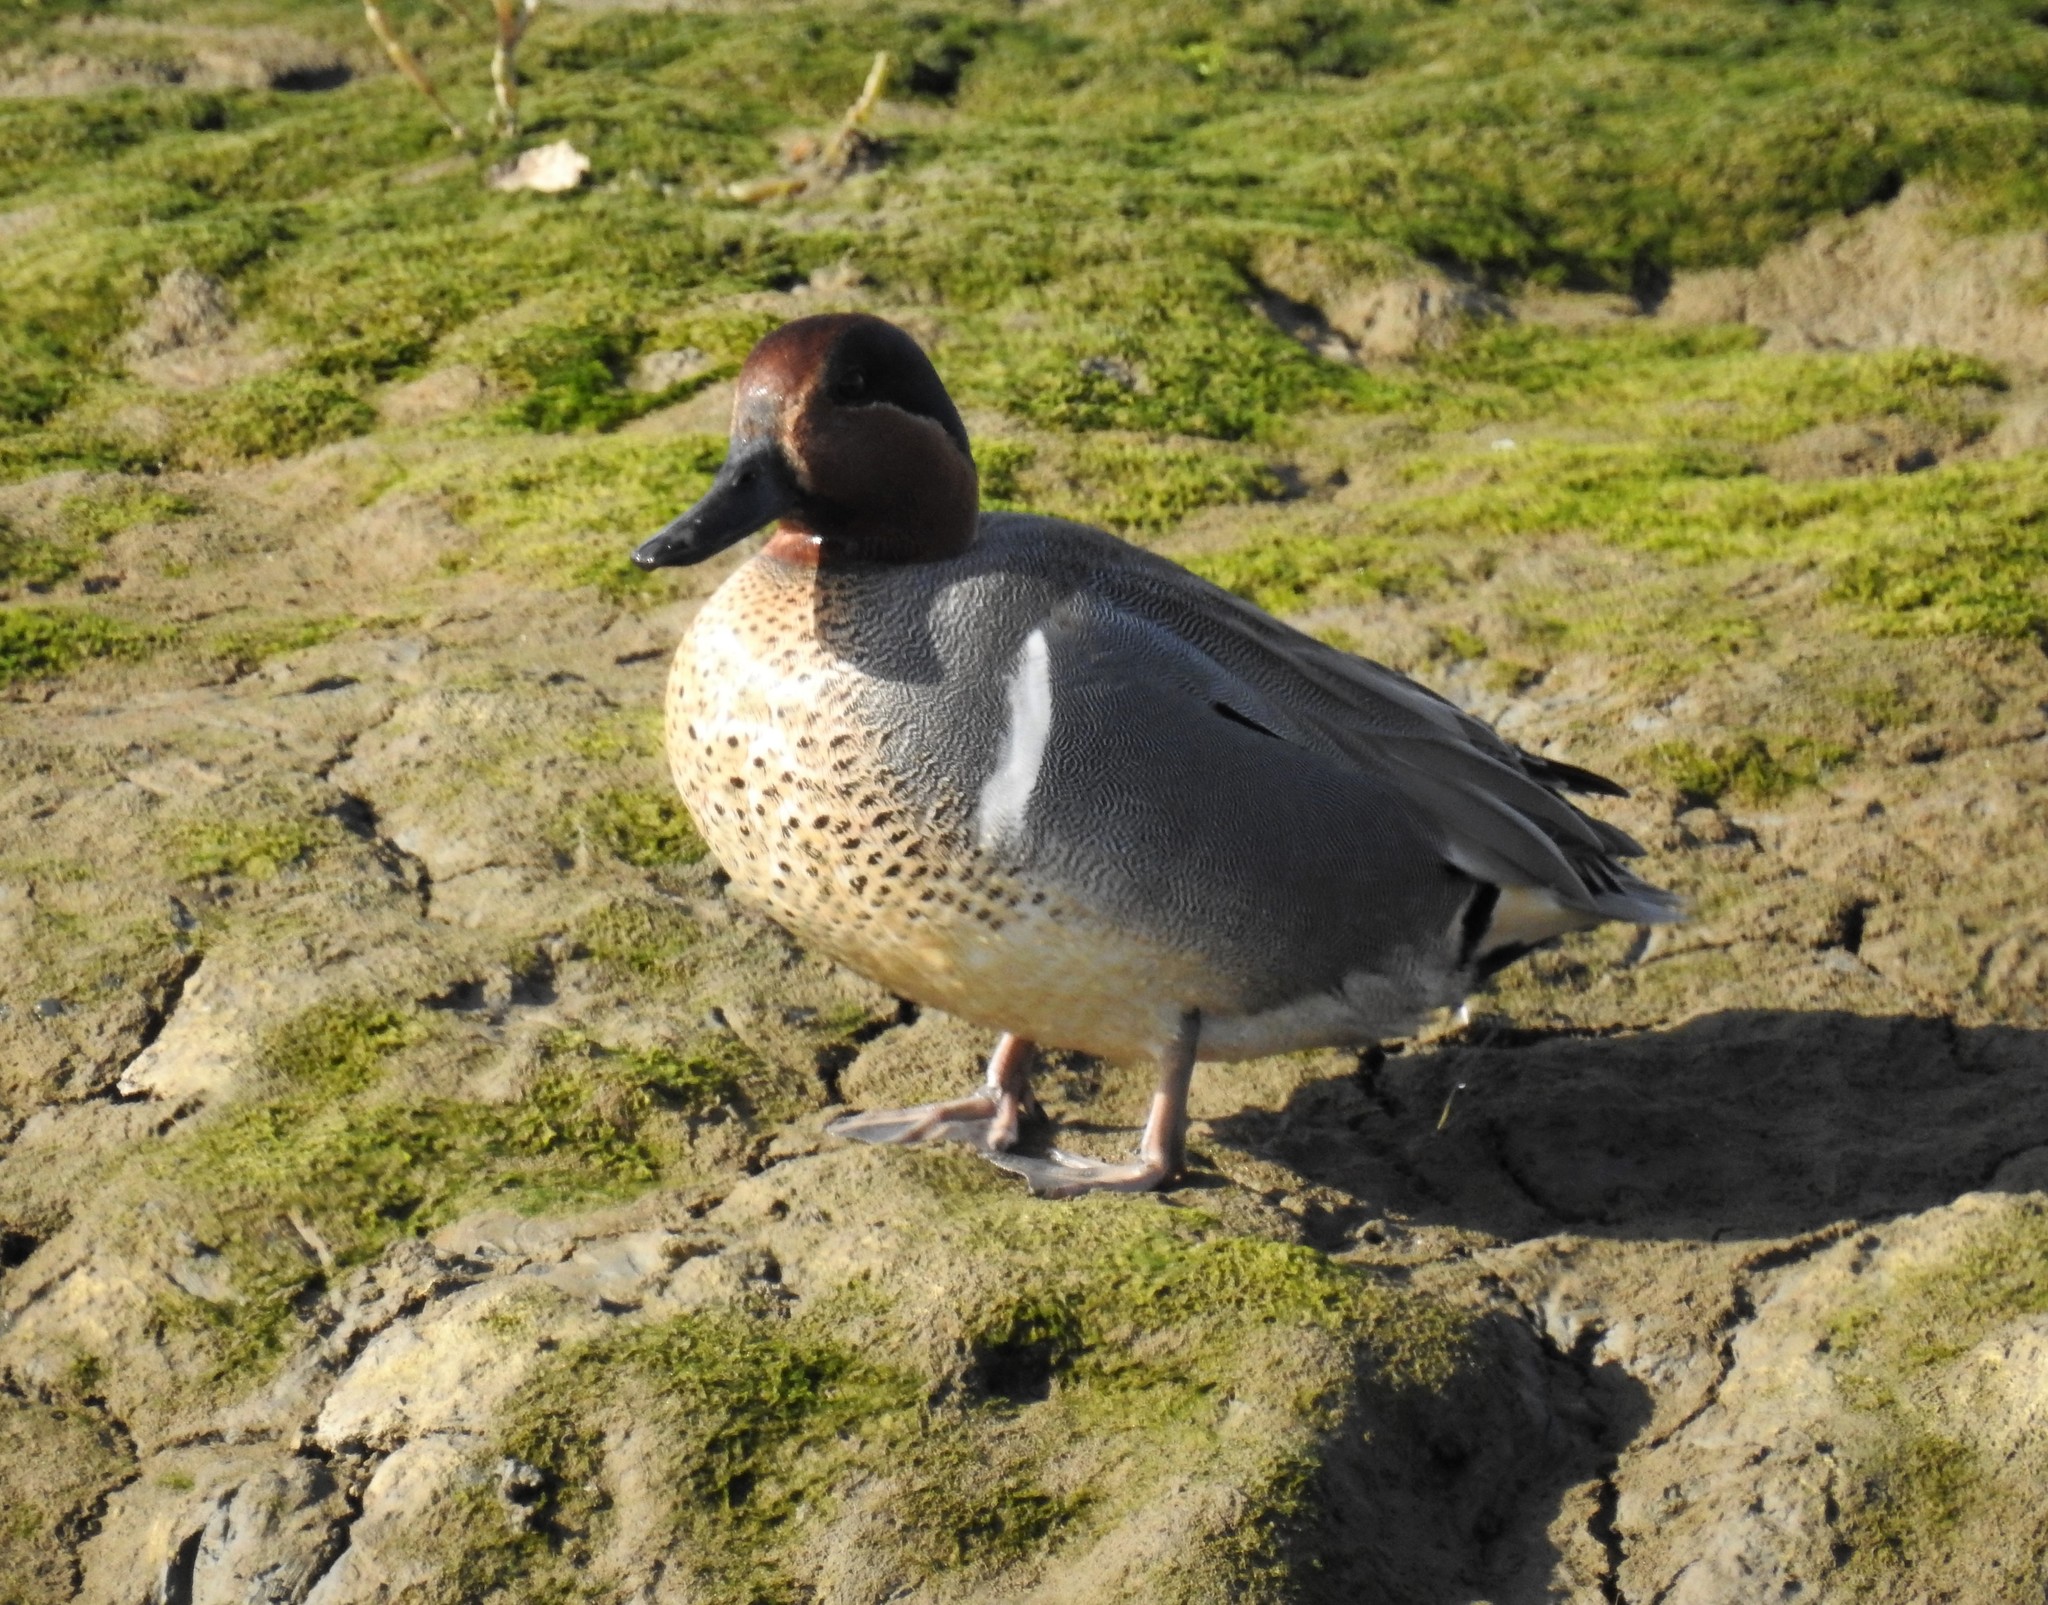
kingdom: Animalia
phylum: Chordata
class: Aves
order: Anseriformes
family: Anatidae
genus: Anas
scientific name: Anas crecca
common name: Eurasian teal
